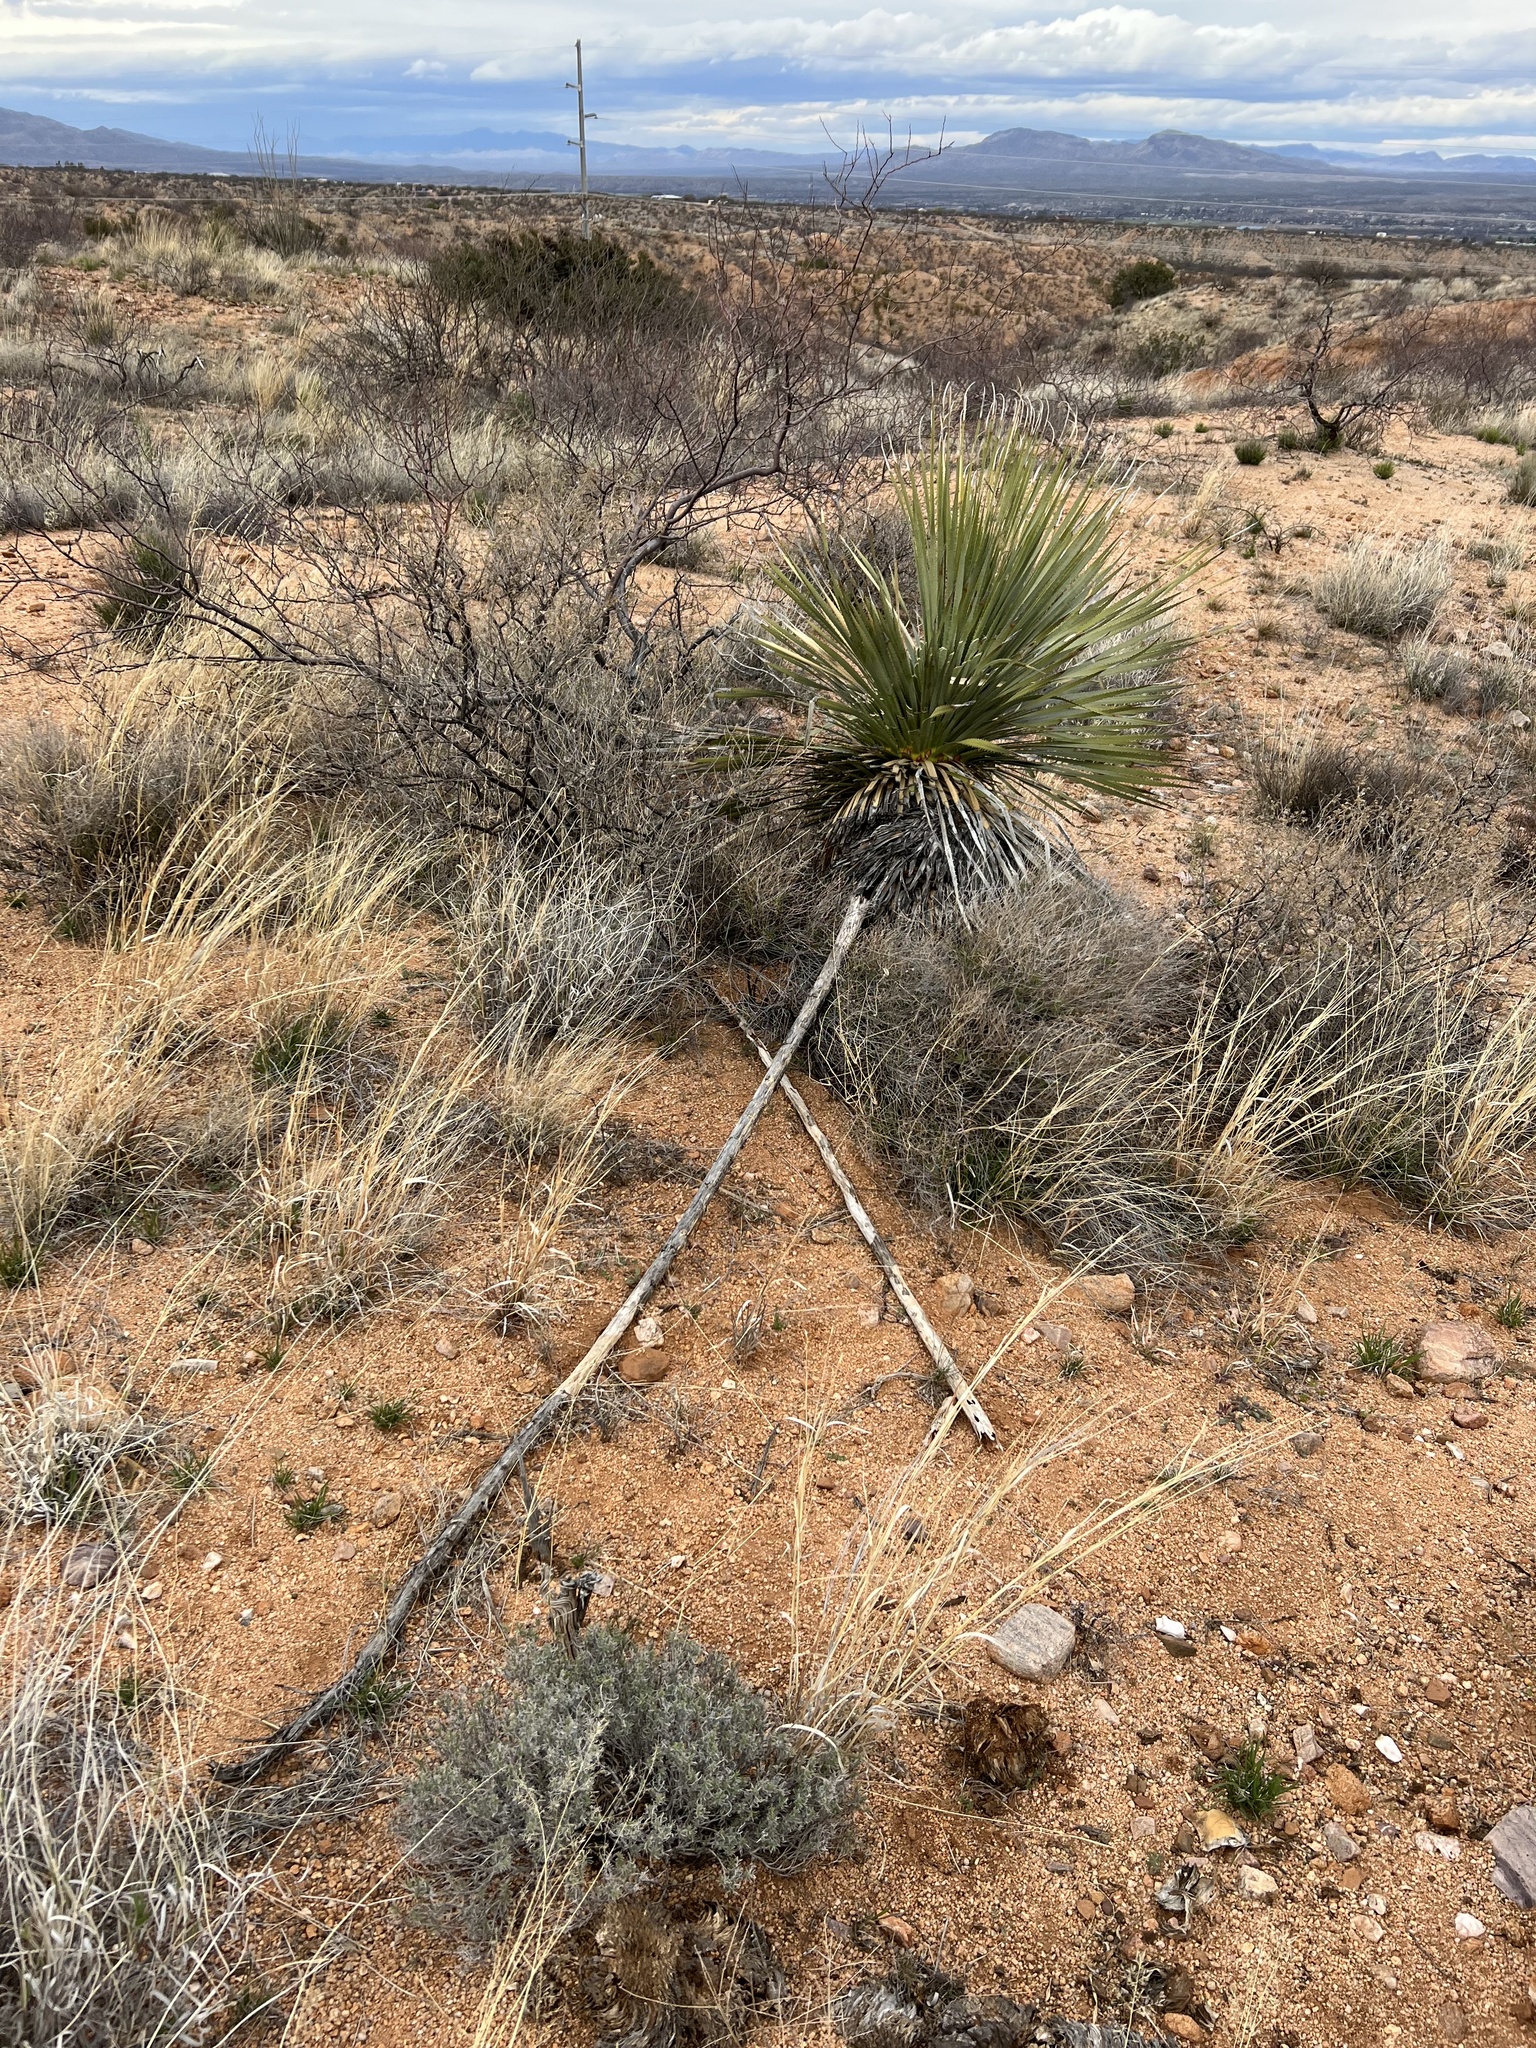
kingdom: Plantae
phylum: Tracheophyta
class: Liliopsida
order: Asparagales
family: Asparagaceae
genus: Dasylirion
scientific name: Dasylirion wheeleri
